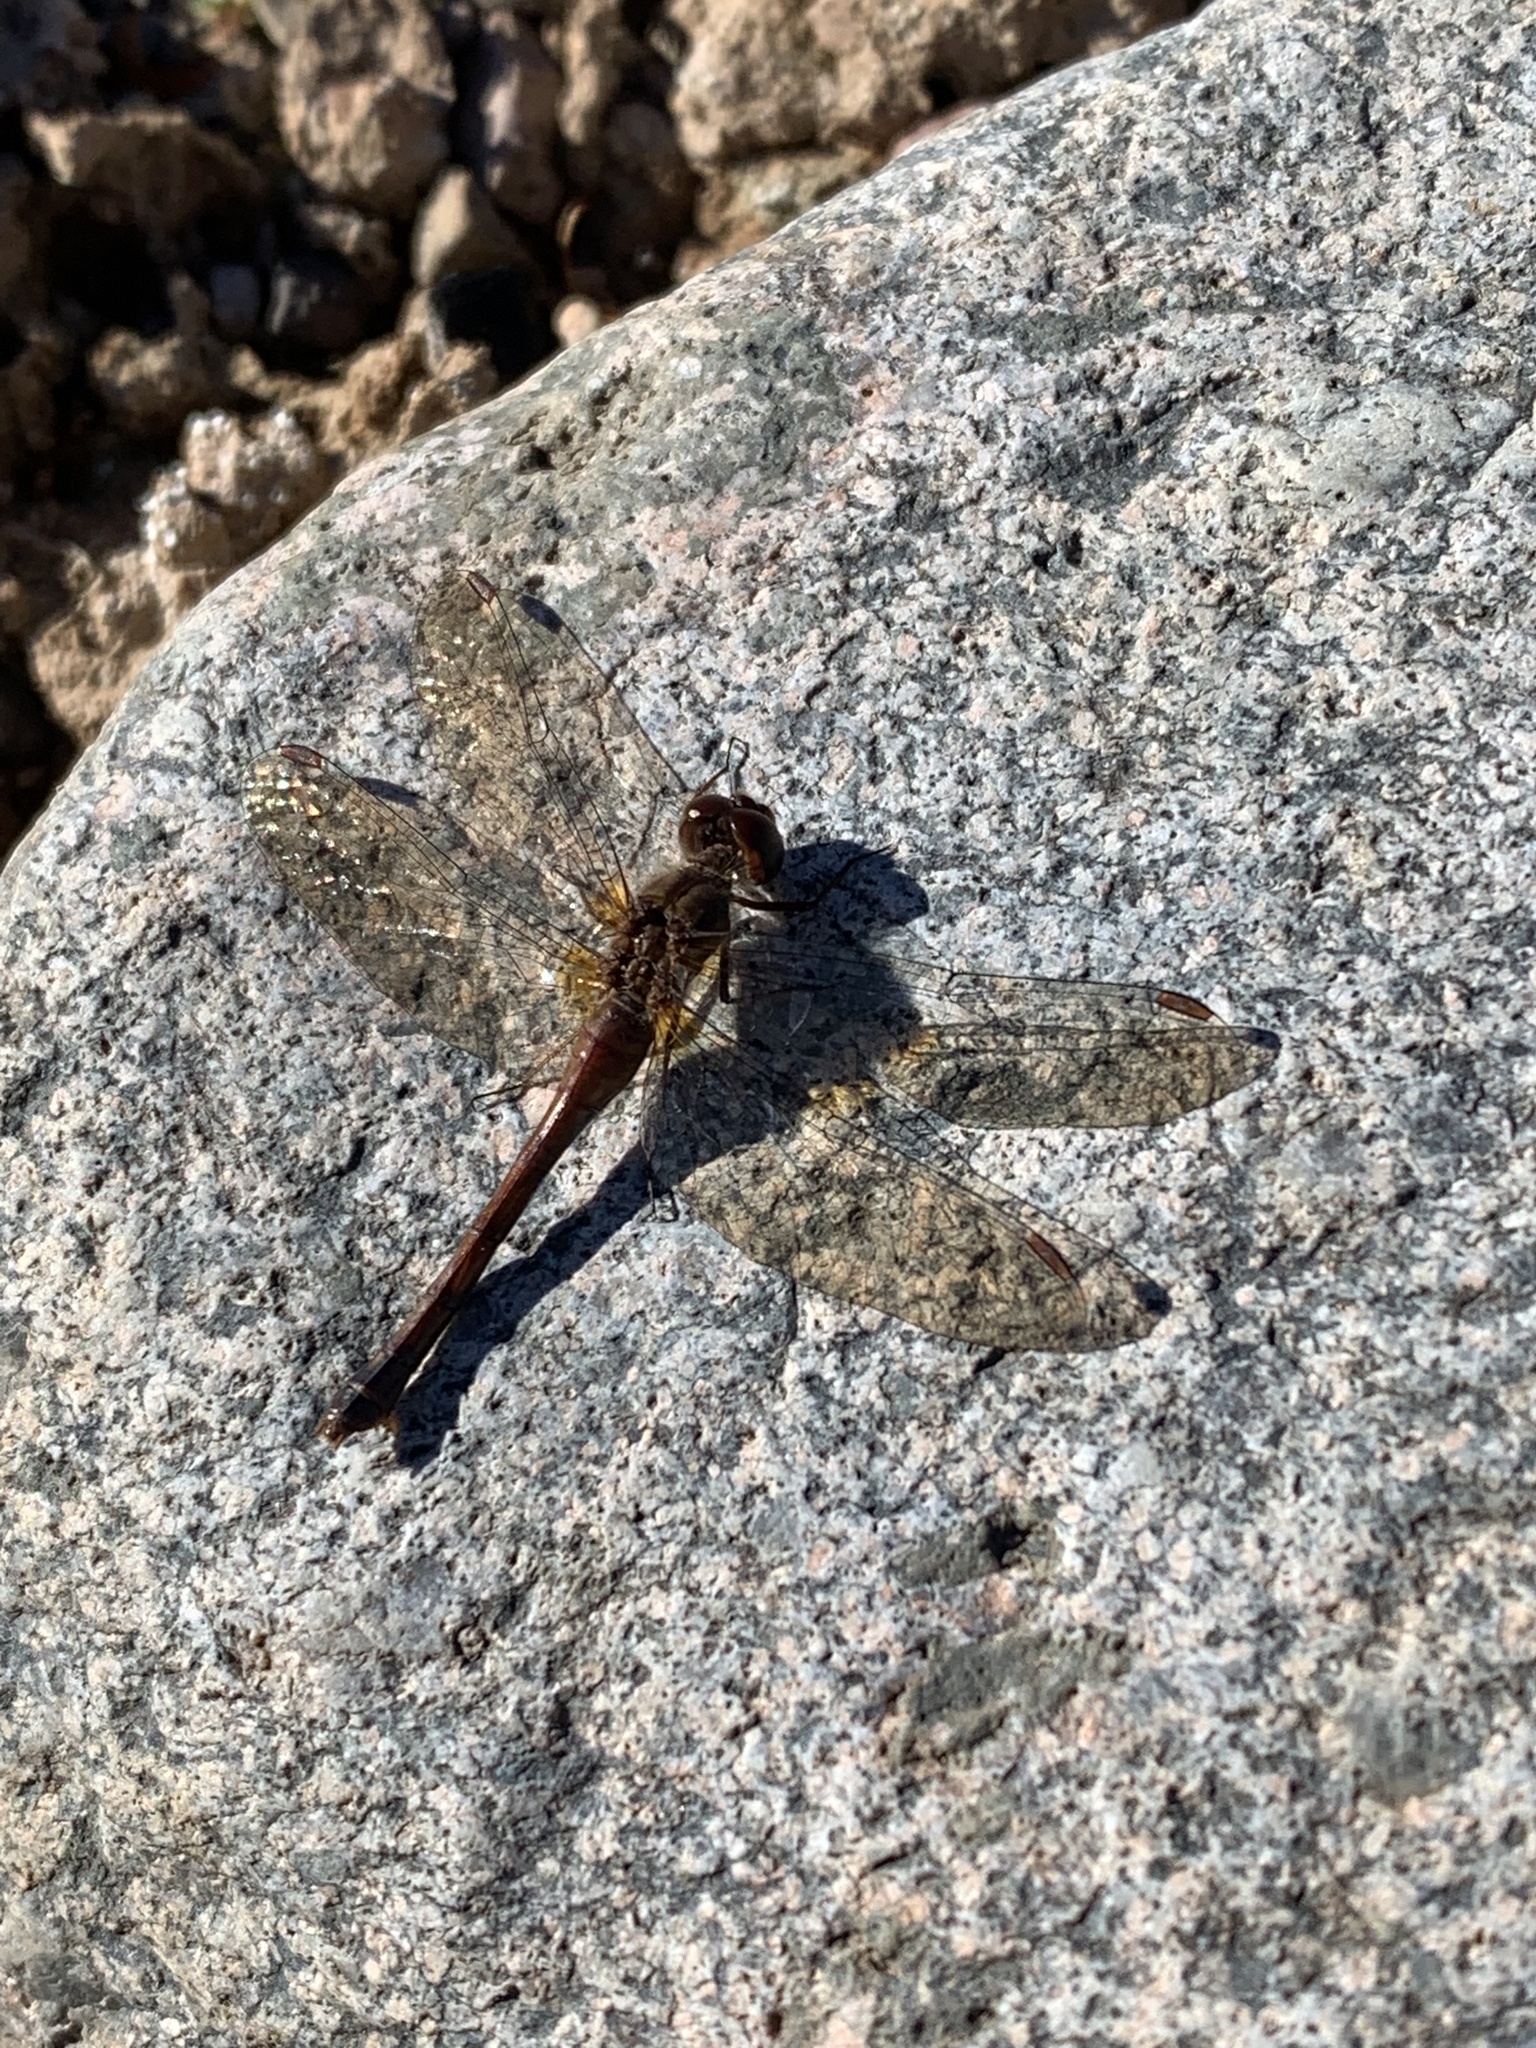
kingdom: Animalia
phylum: Arthropoda
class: Insecta
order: Odonata
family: Libellulidae
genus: Sympetrum
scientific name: Sympetrum vicinum
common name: Autumn meadowhawk
